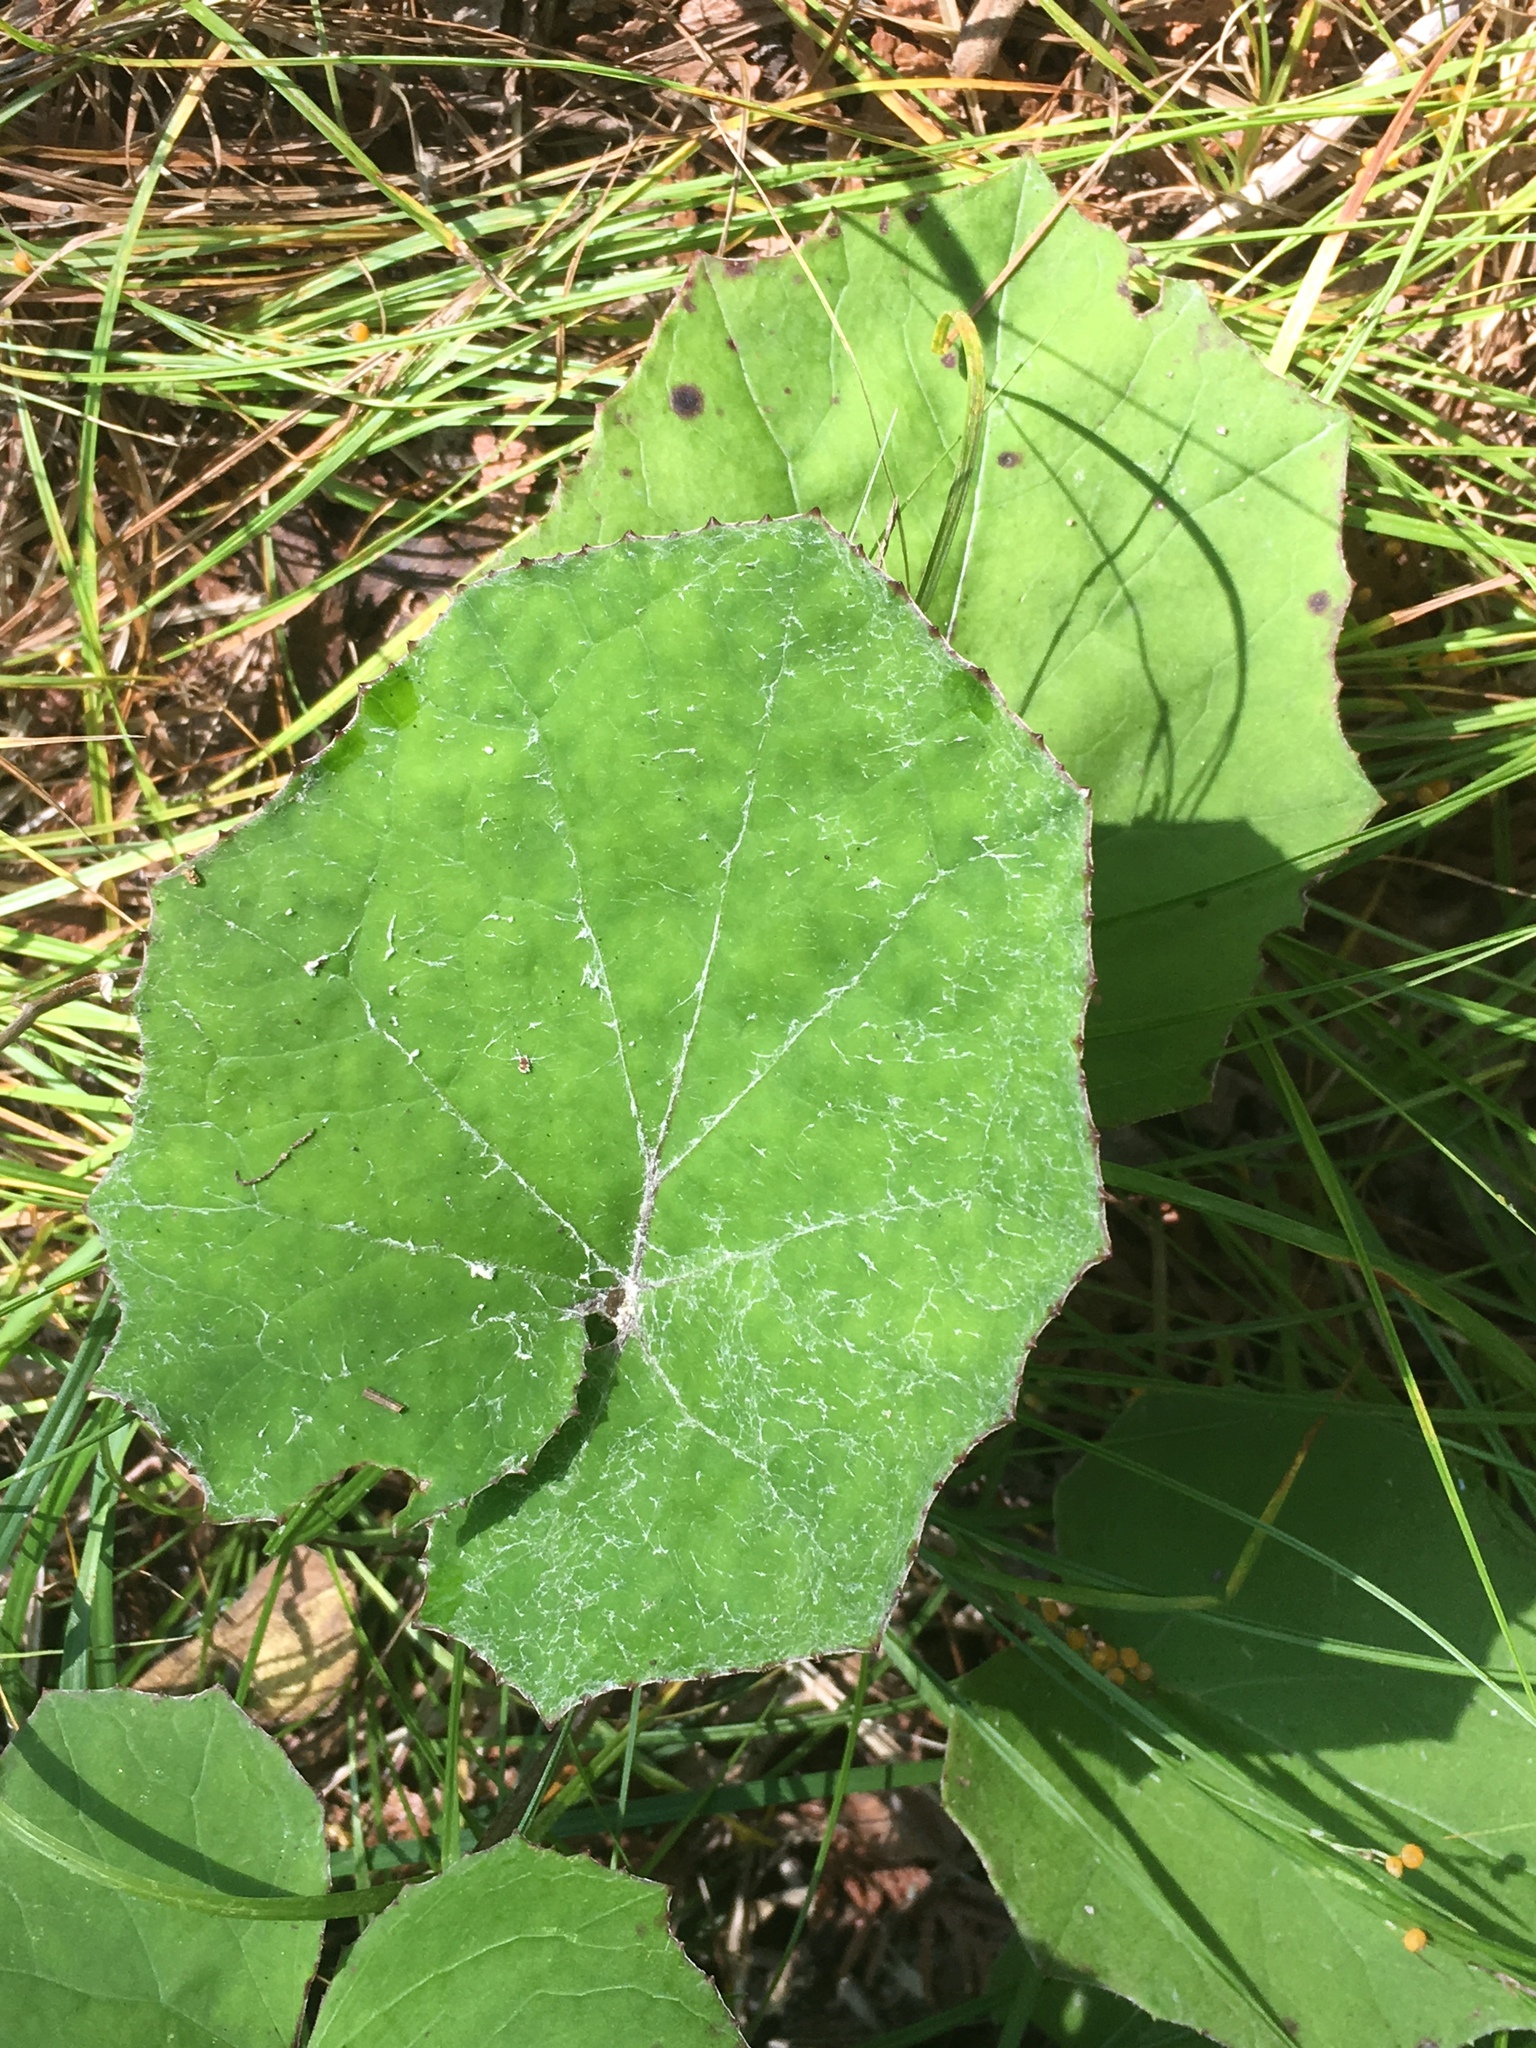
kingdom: Plantae
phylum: Tracheophyta
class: Magnoliopsida
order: Asterales
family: Asteraceae
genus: Tussilago
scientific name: Tussilago farfara
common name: Coltsfoot
